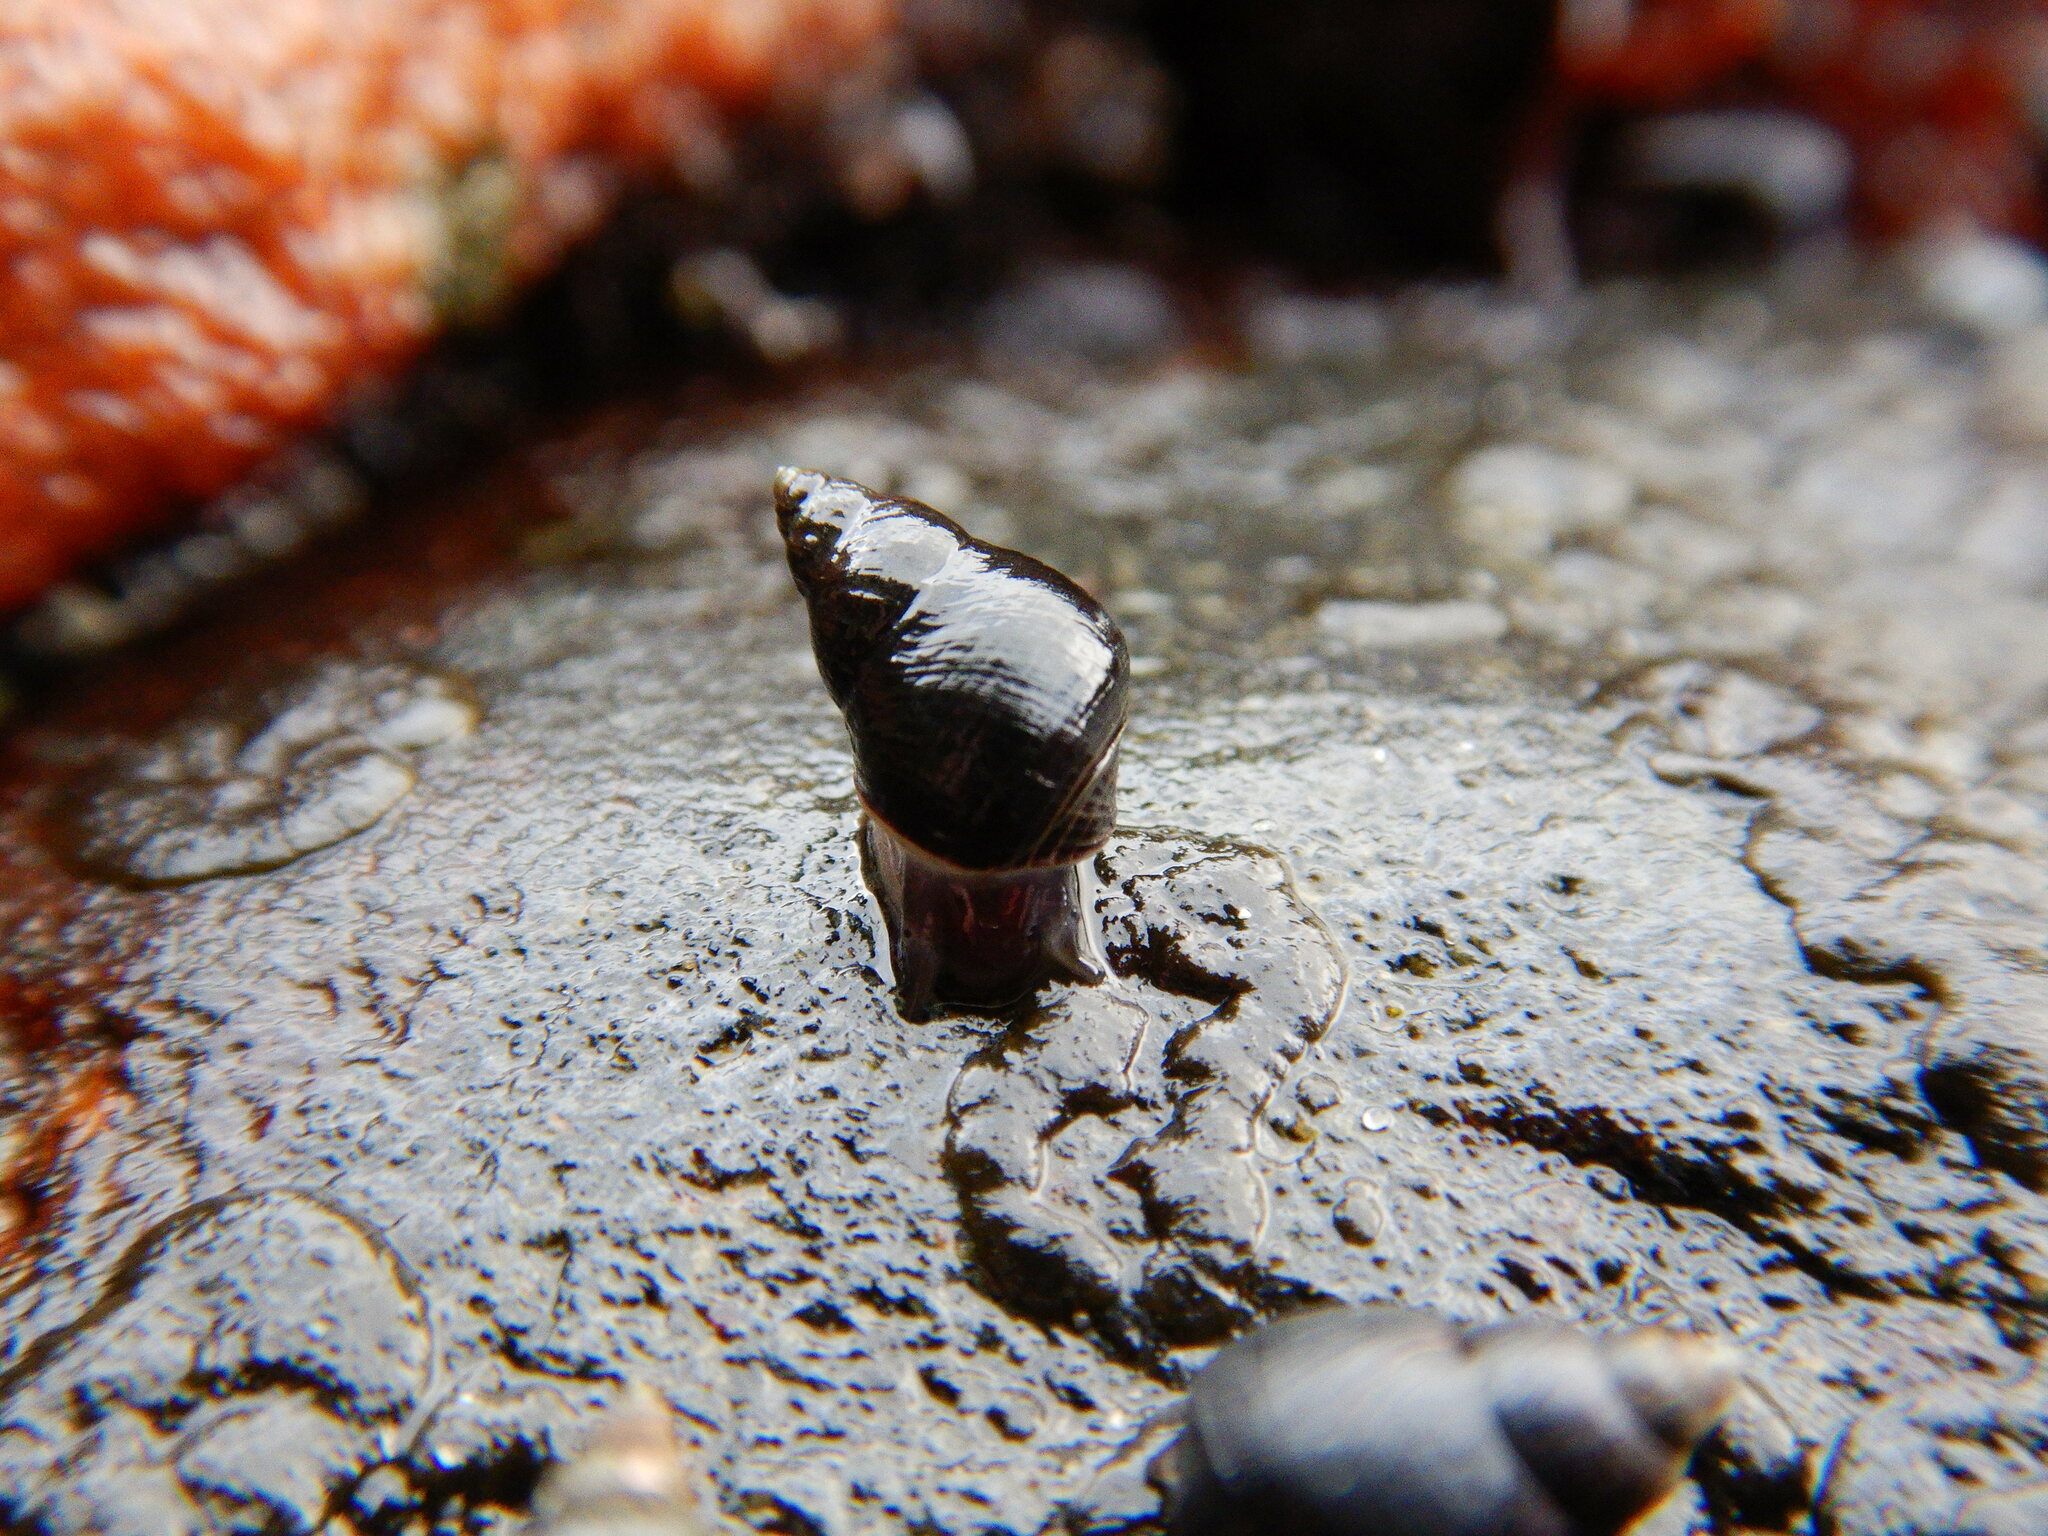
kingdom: Animalia
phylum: Mollusca
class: Gastropoda
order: Littorinimorpha
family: Littorinidae
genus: Austrolittorina
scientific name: Austrolittorina cincta
